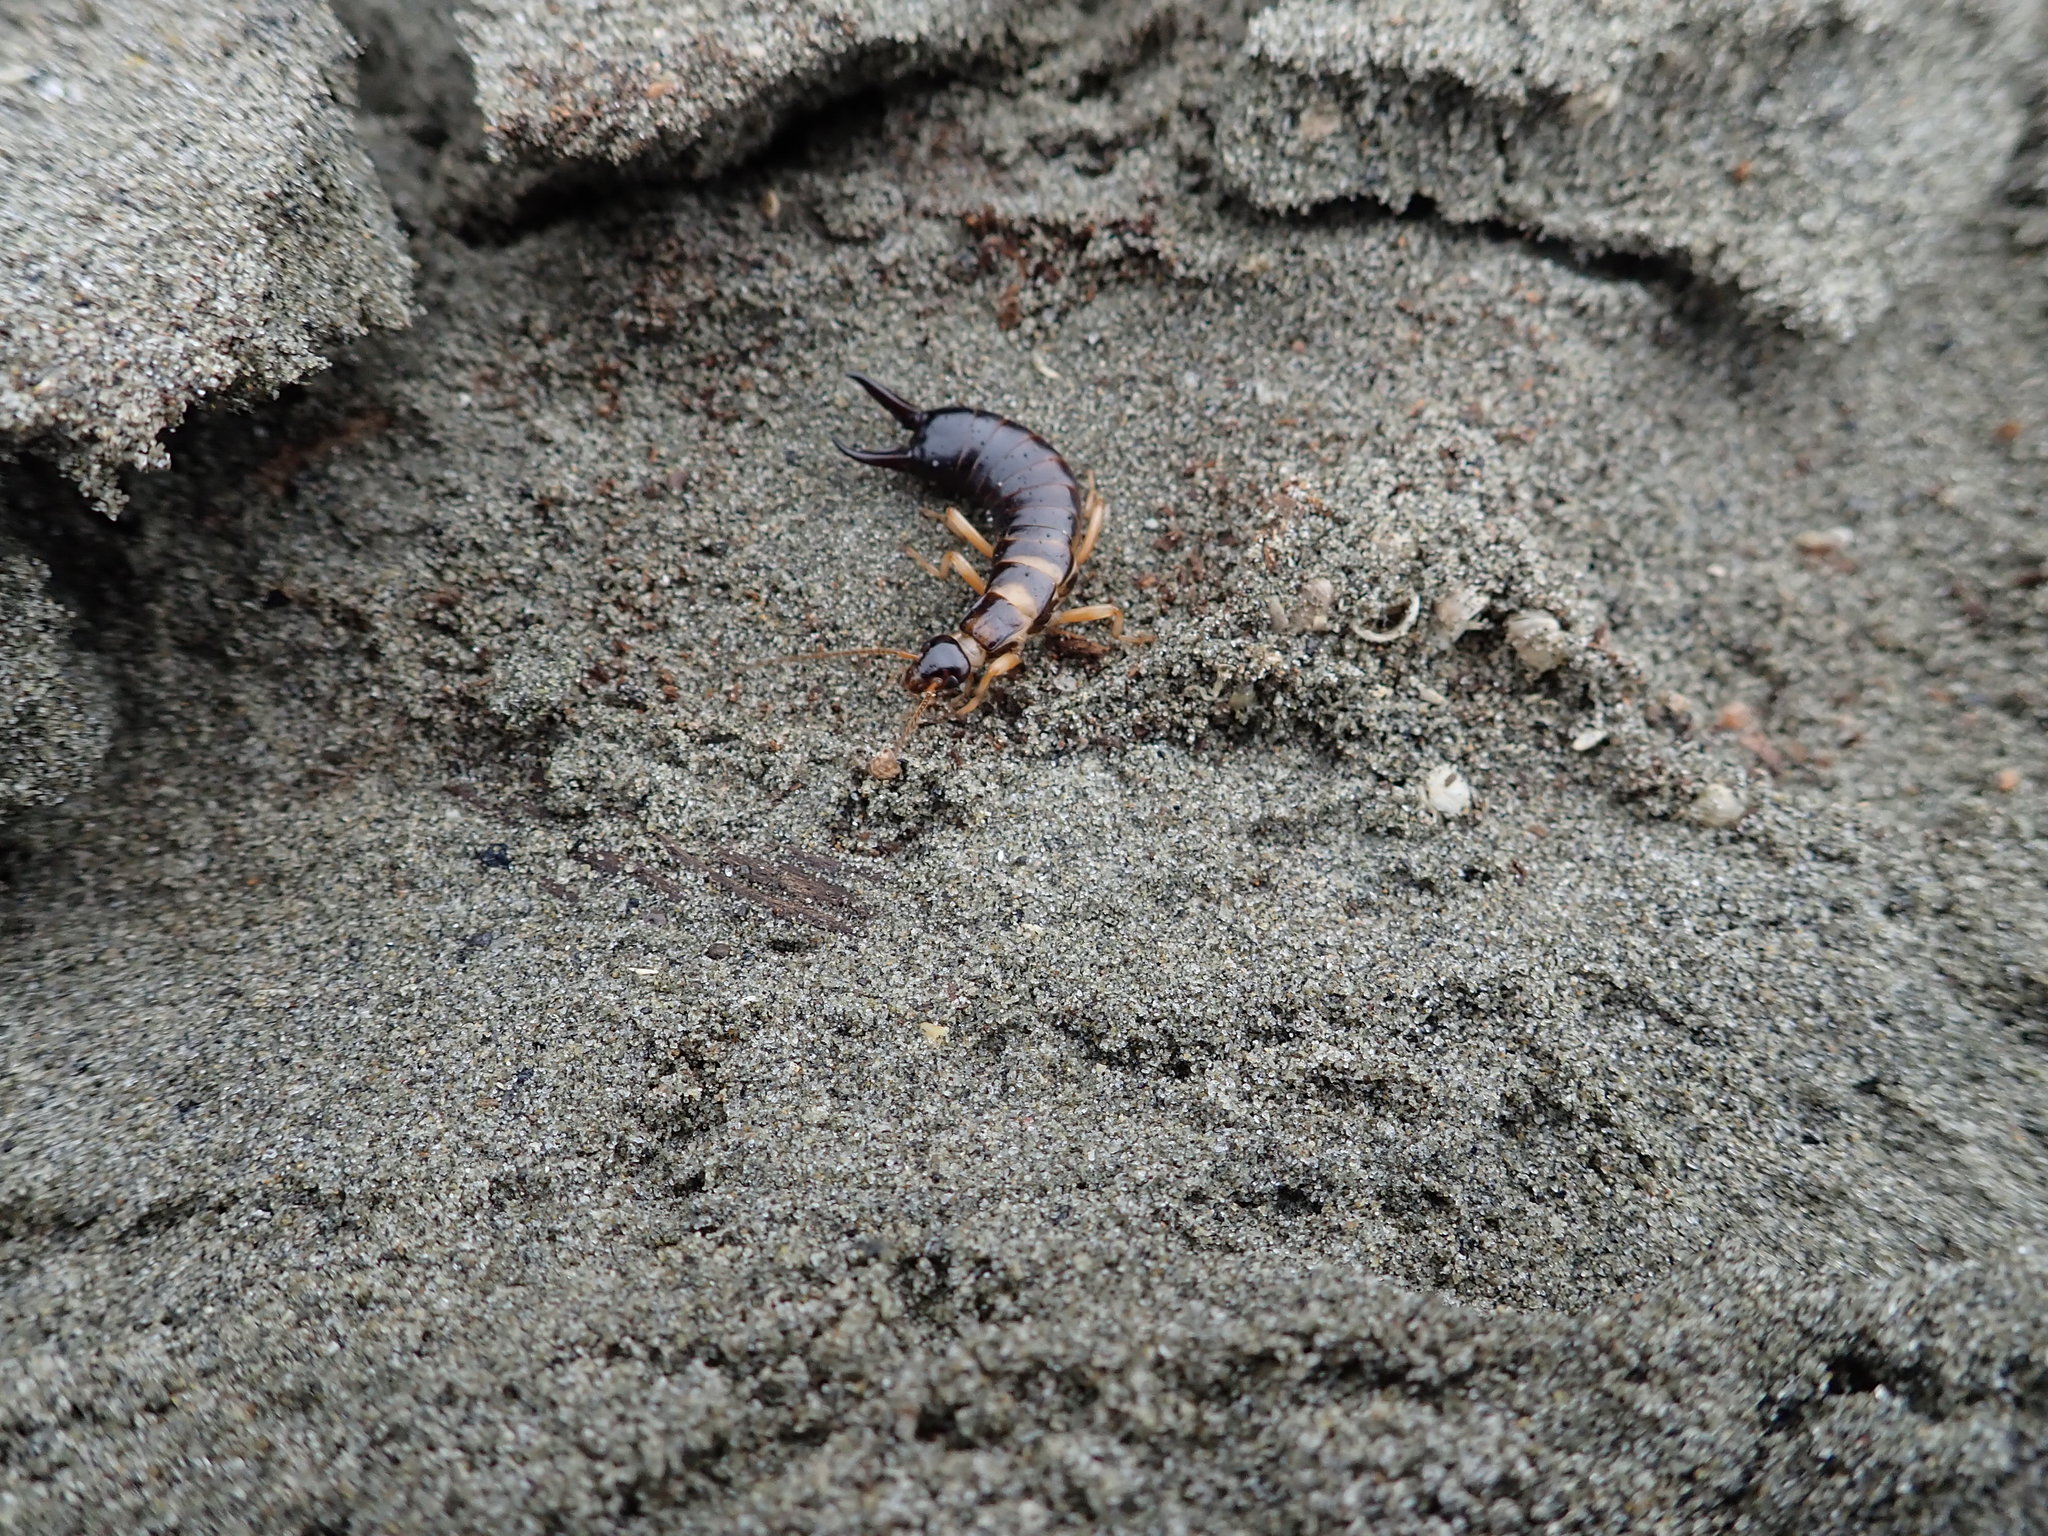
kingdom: Animalia
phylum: Arthropoda
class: Insecta
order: Dermaptera
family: Anisolabididae
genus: Anisolabis
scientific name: Anisolabis littorea
